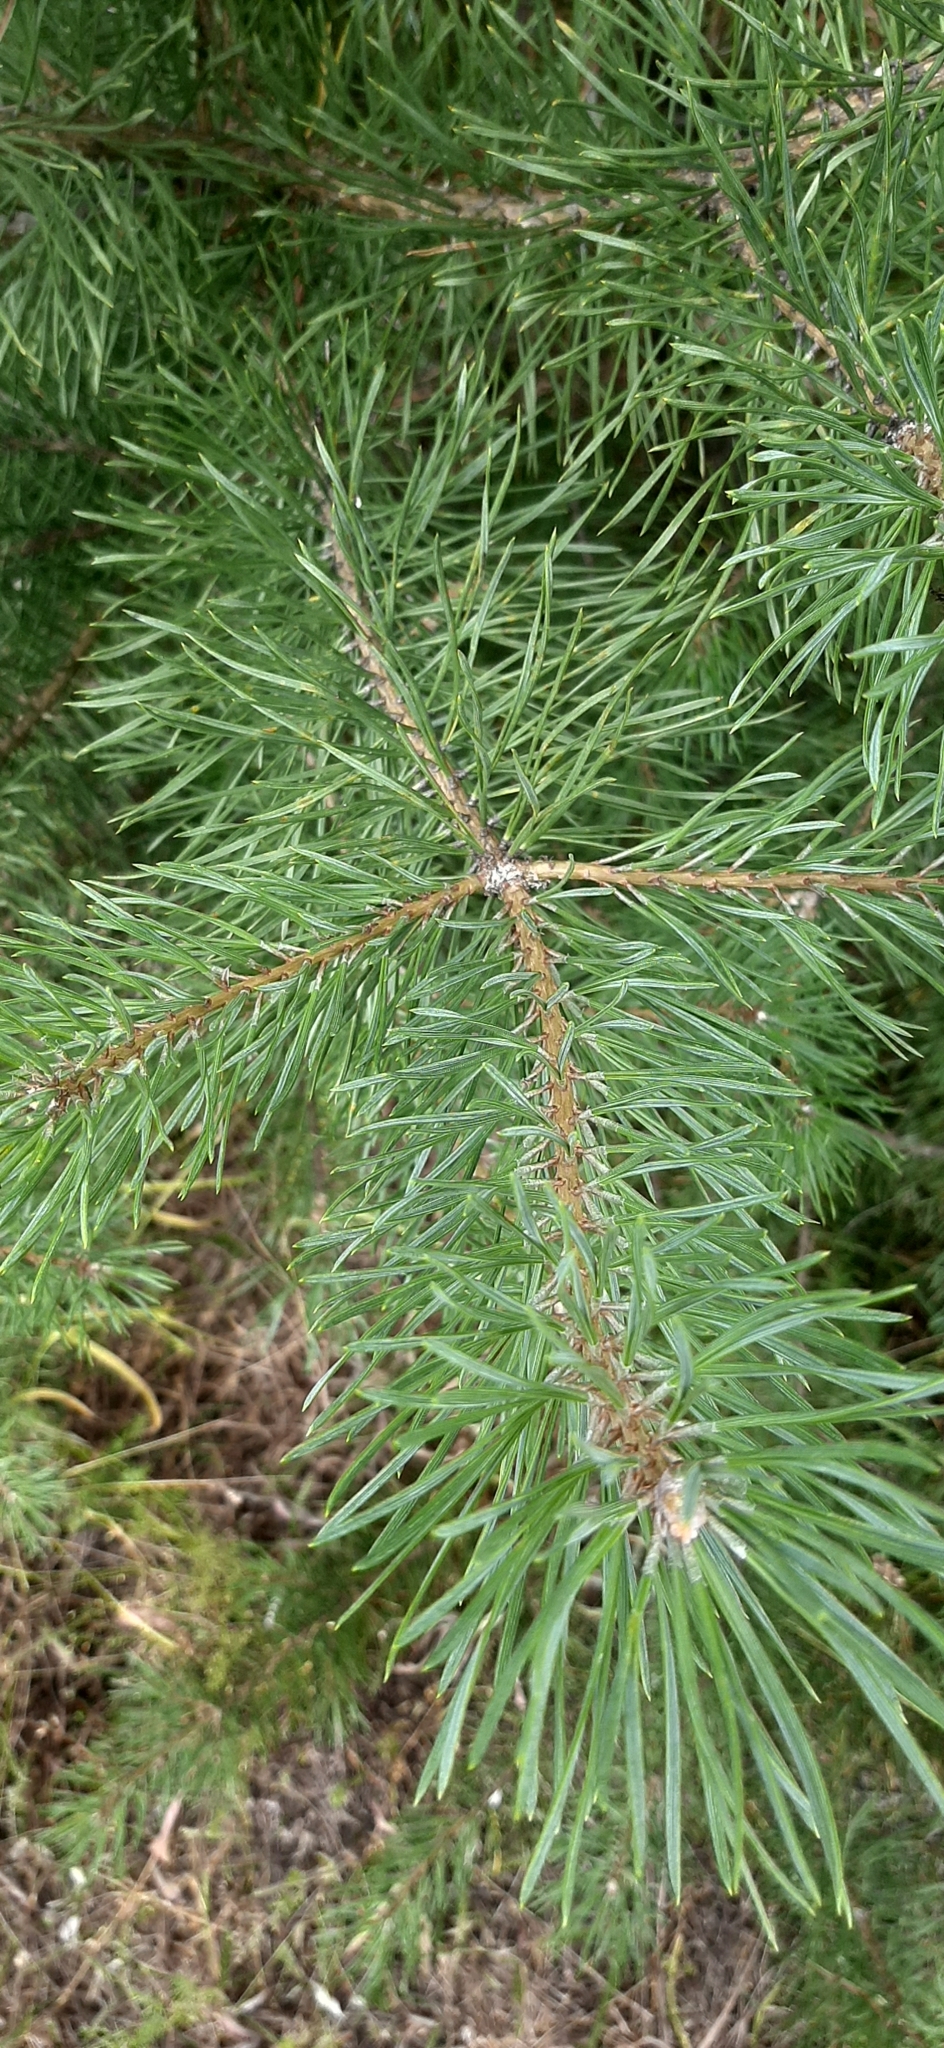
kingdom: Plantae
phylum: Tracheophyta
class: Pinopsida
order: Pinales
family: Pinaceae
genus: Pinus
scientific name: Pinus sylvestris
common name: Scots pine
